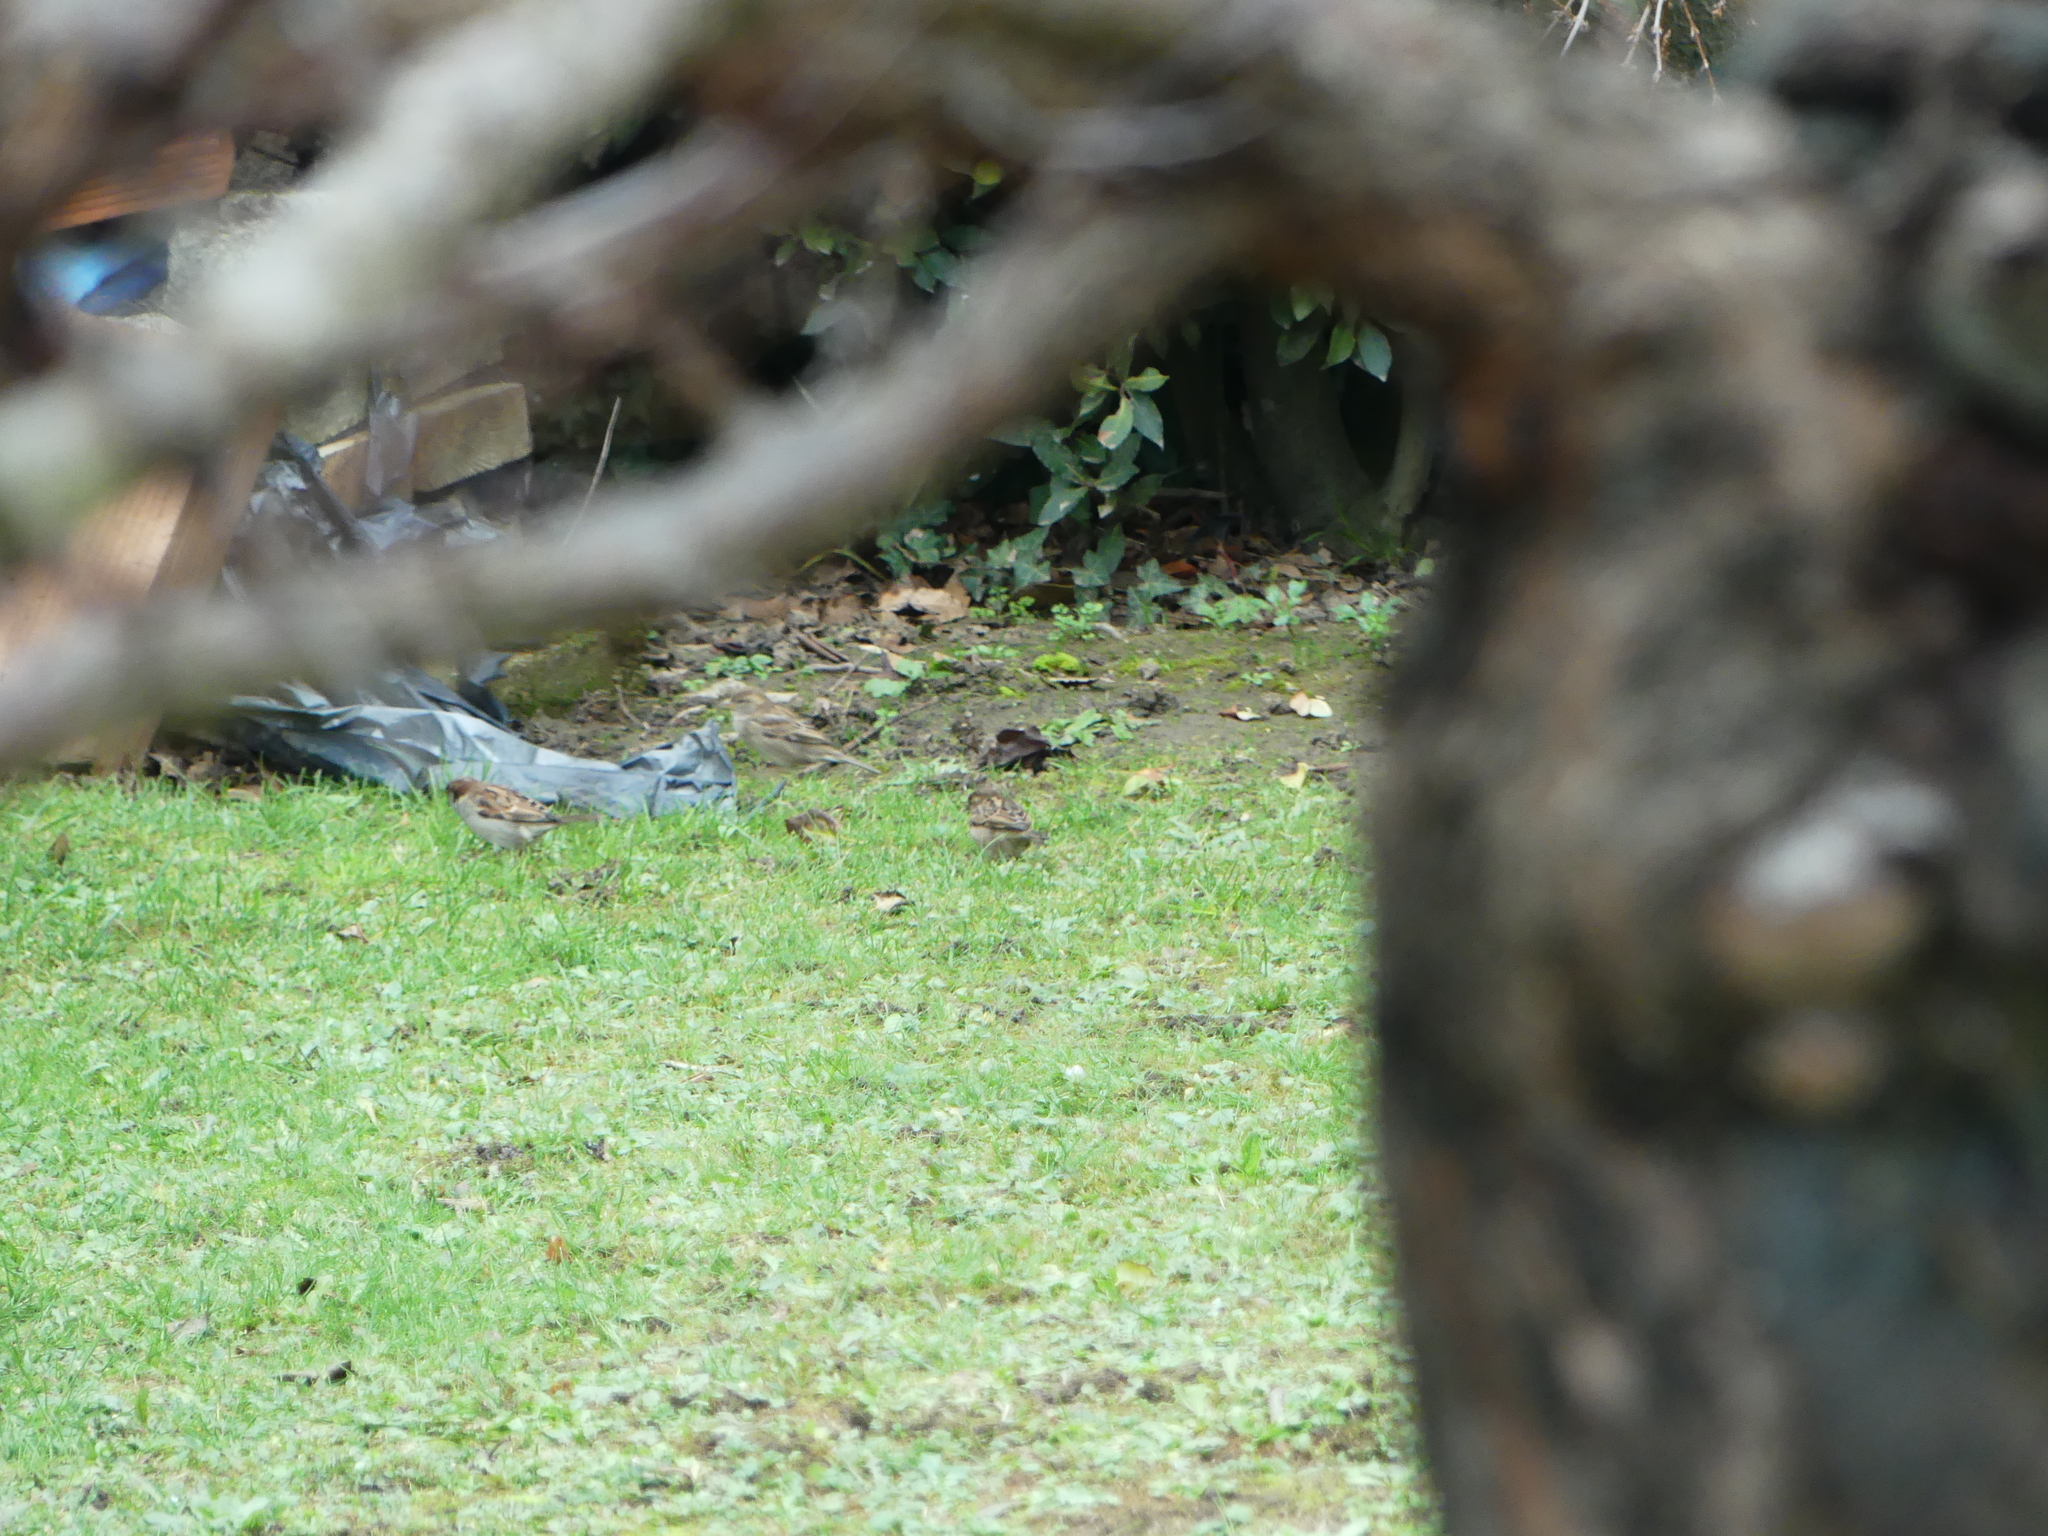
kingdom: Animalia
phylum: Chordata
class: Aves
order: Passeriformes
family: Passeridae
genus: Passer
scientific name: Passer domesticus
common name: House sparrow
